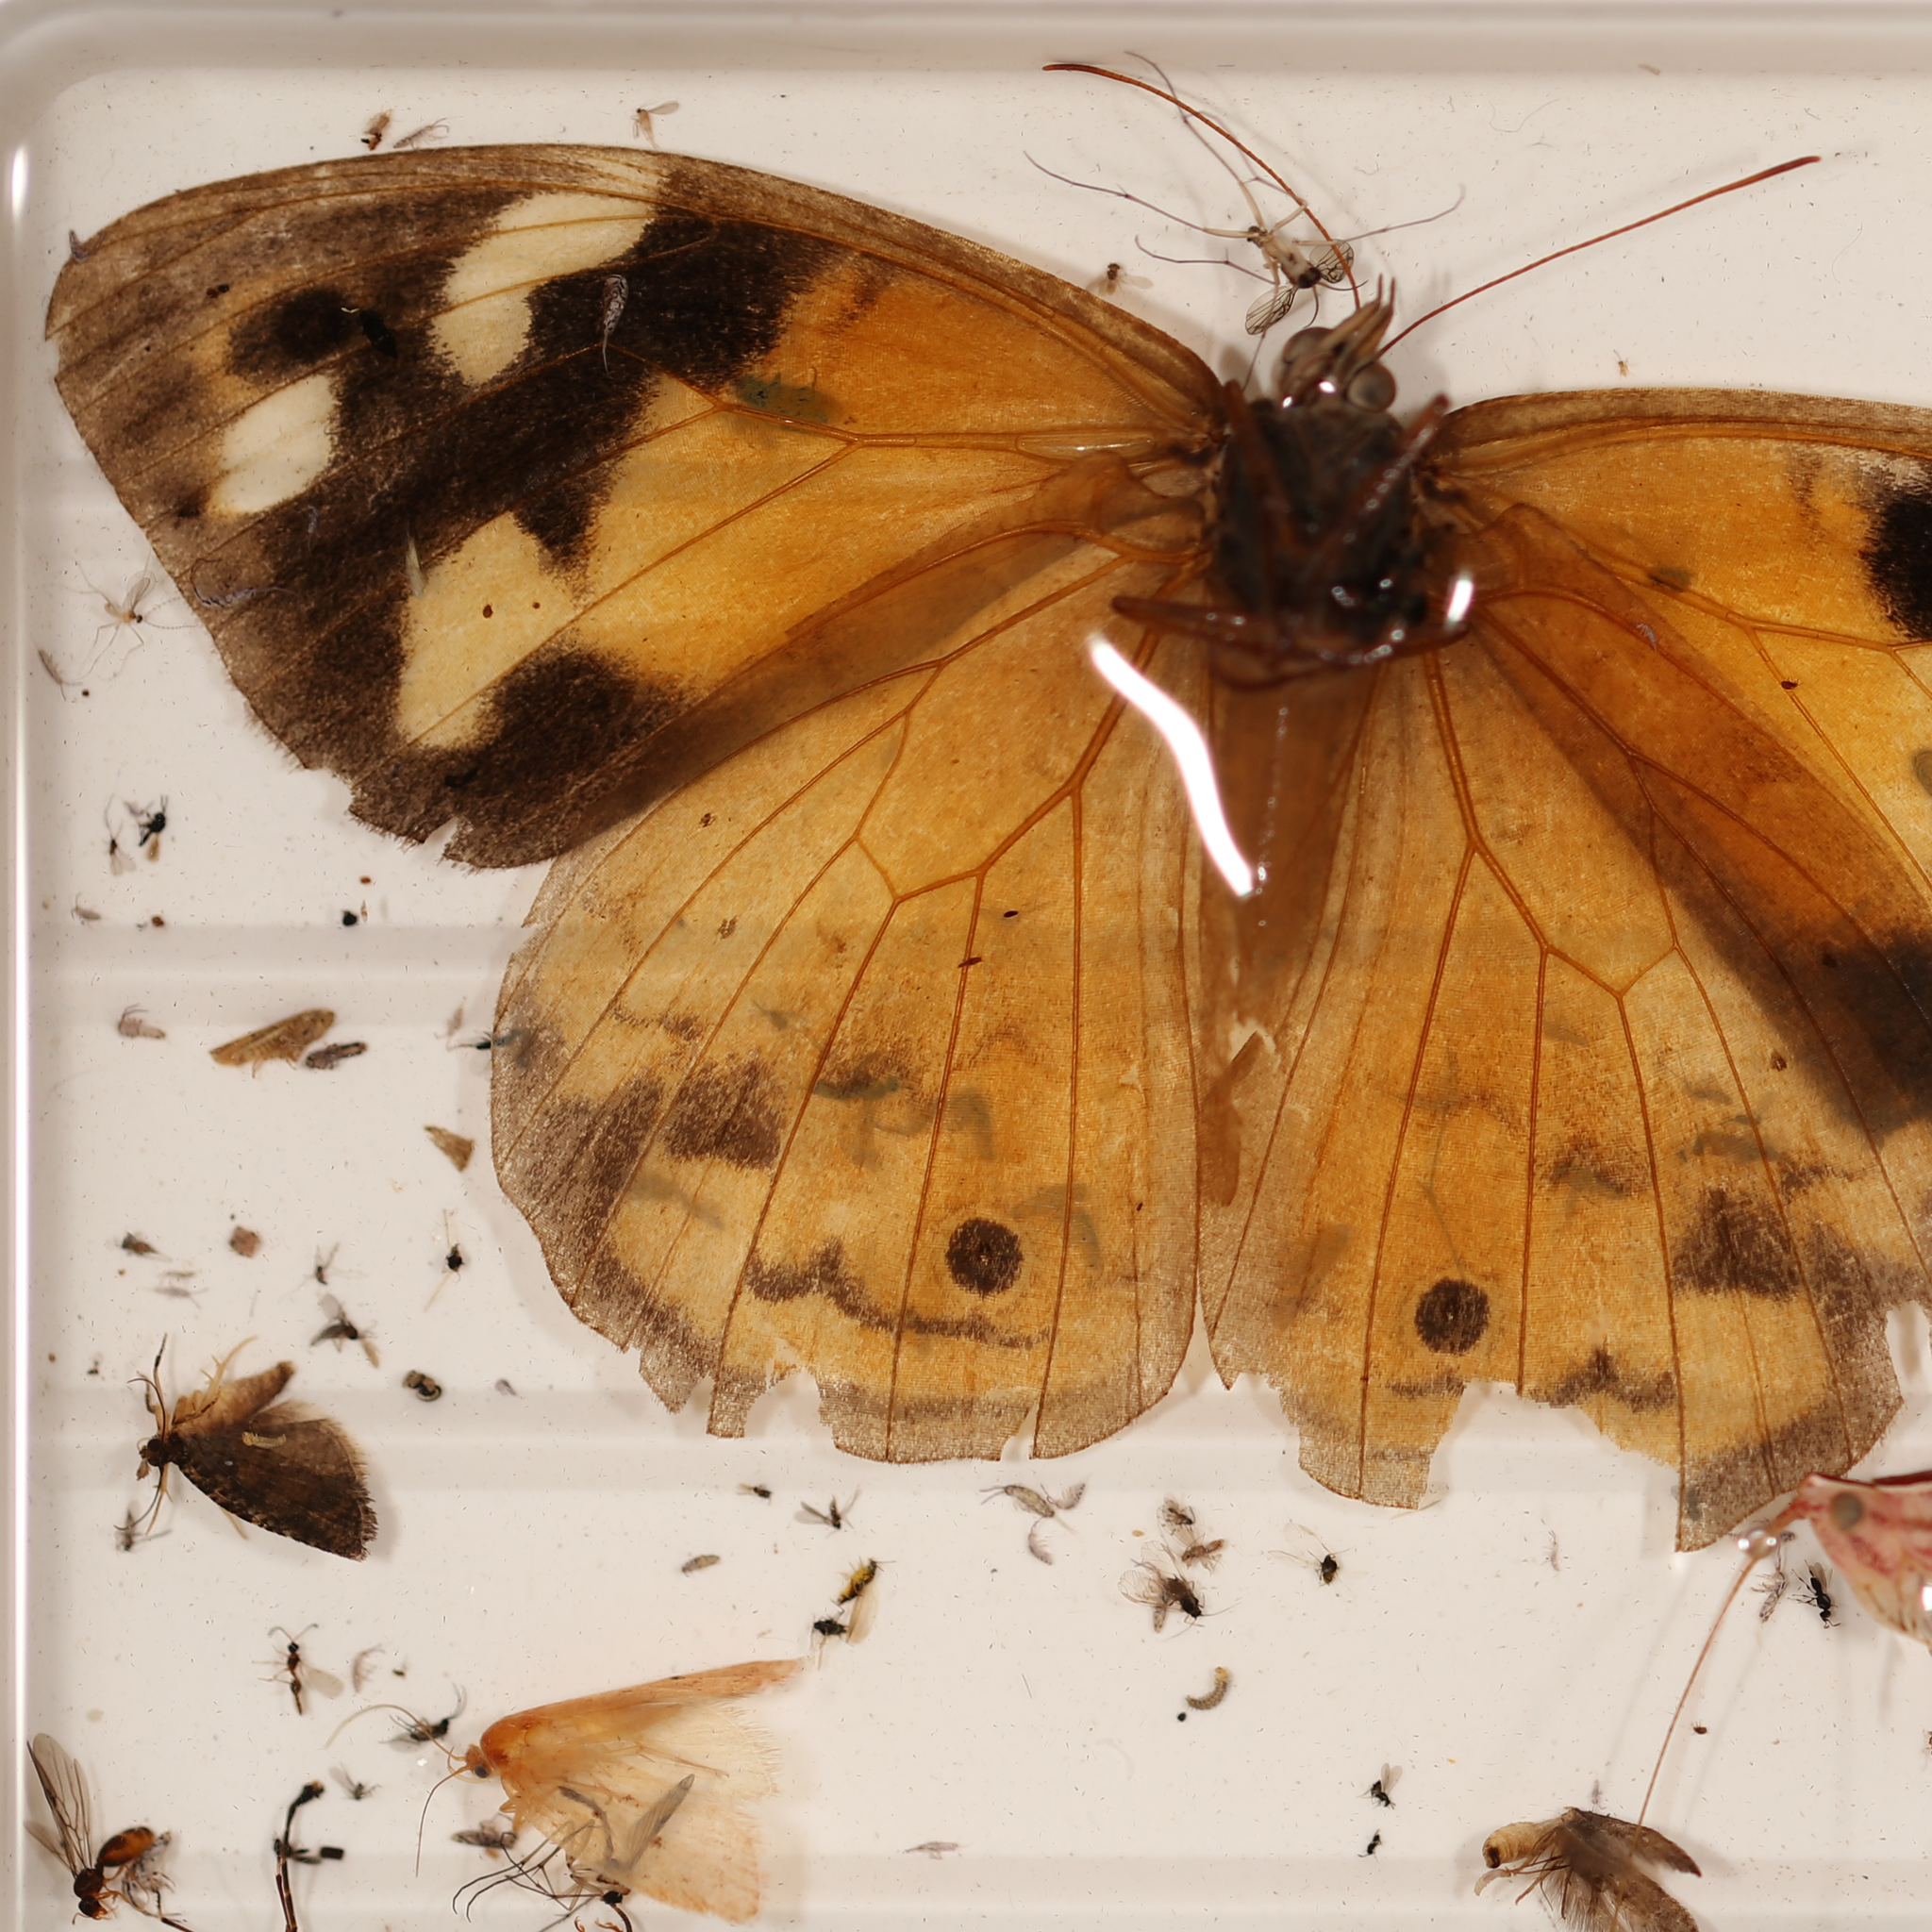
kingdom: Animalia
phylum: Arthropoda
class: Insecta
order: Lepidoptera
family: Nymphalidae
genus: Heteronympha
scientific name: Heteronympha merope
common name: Common brown
